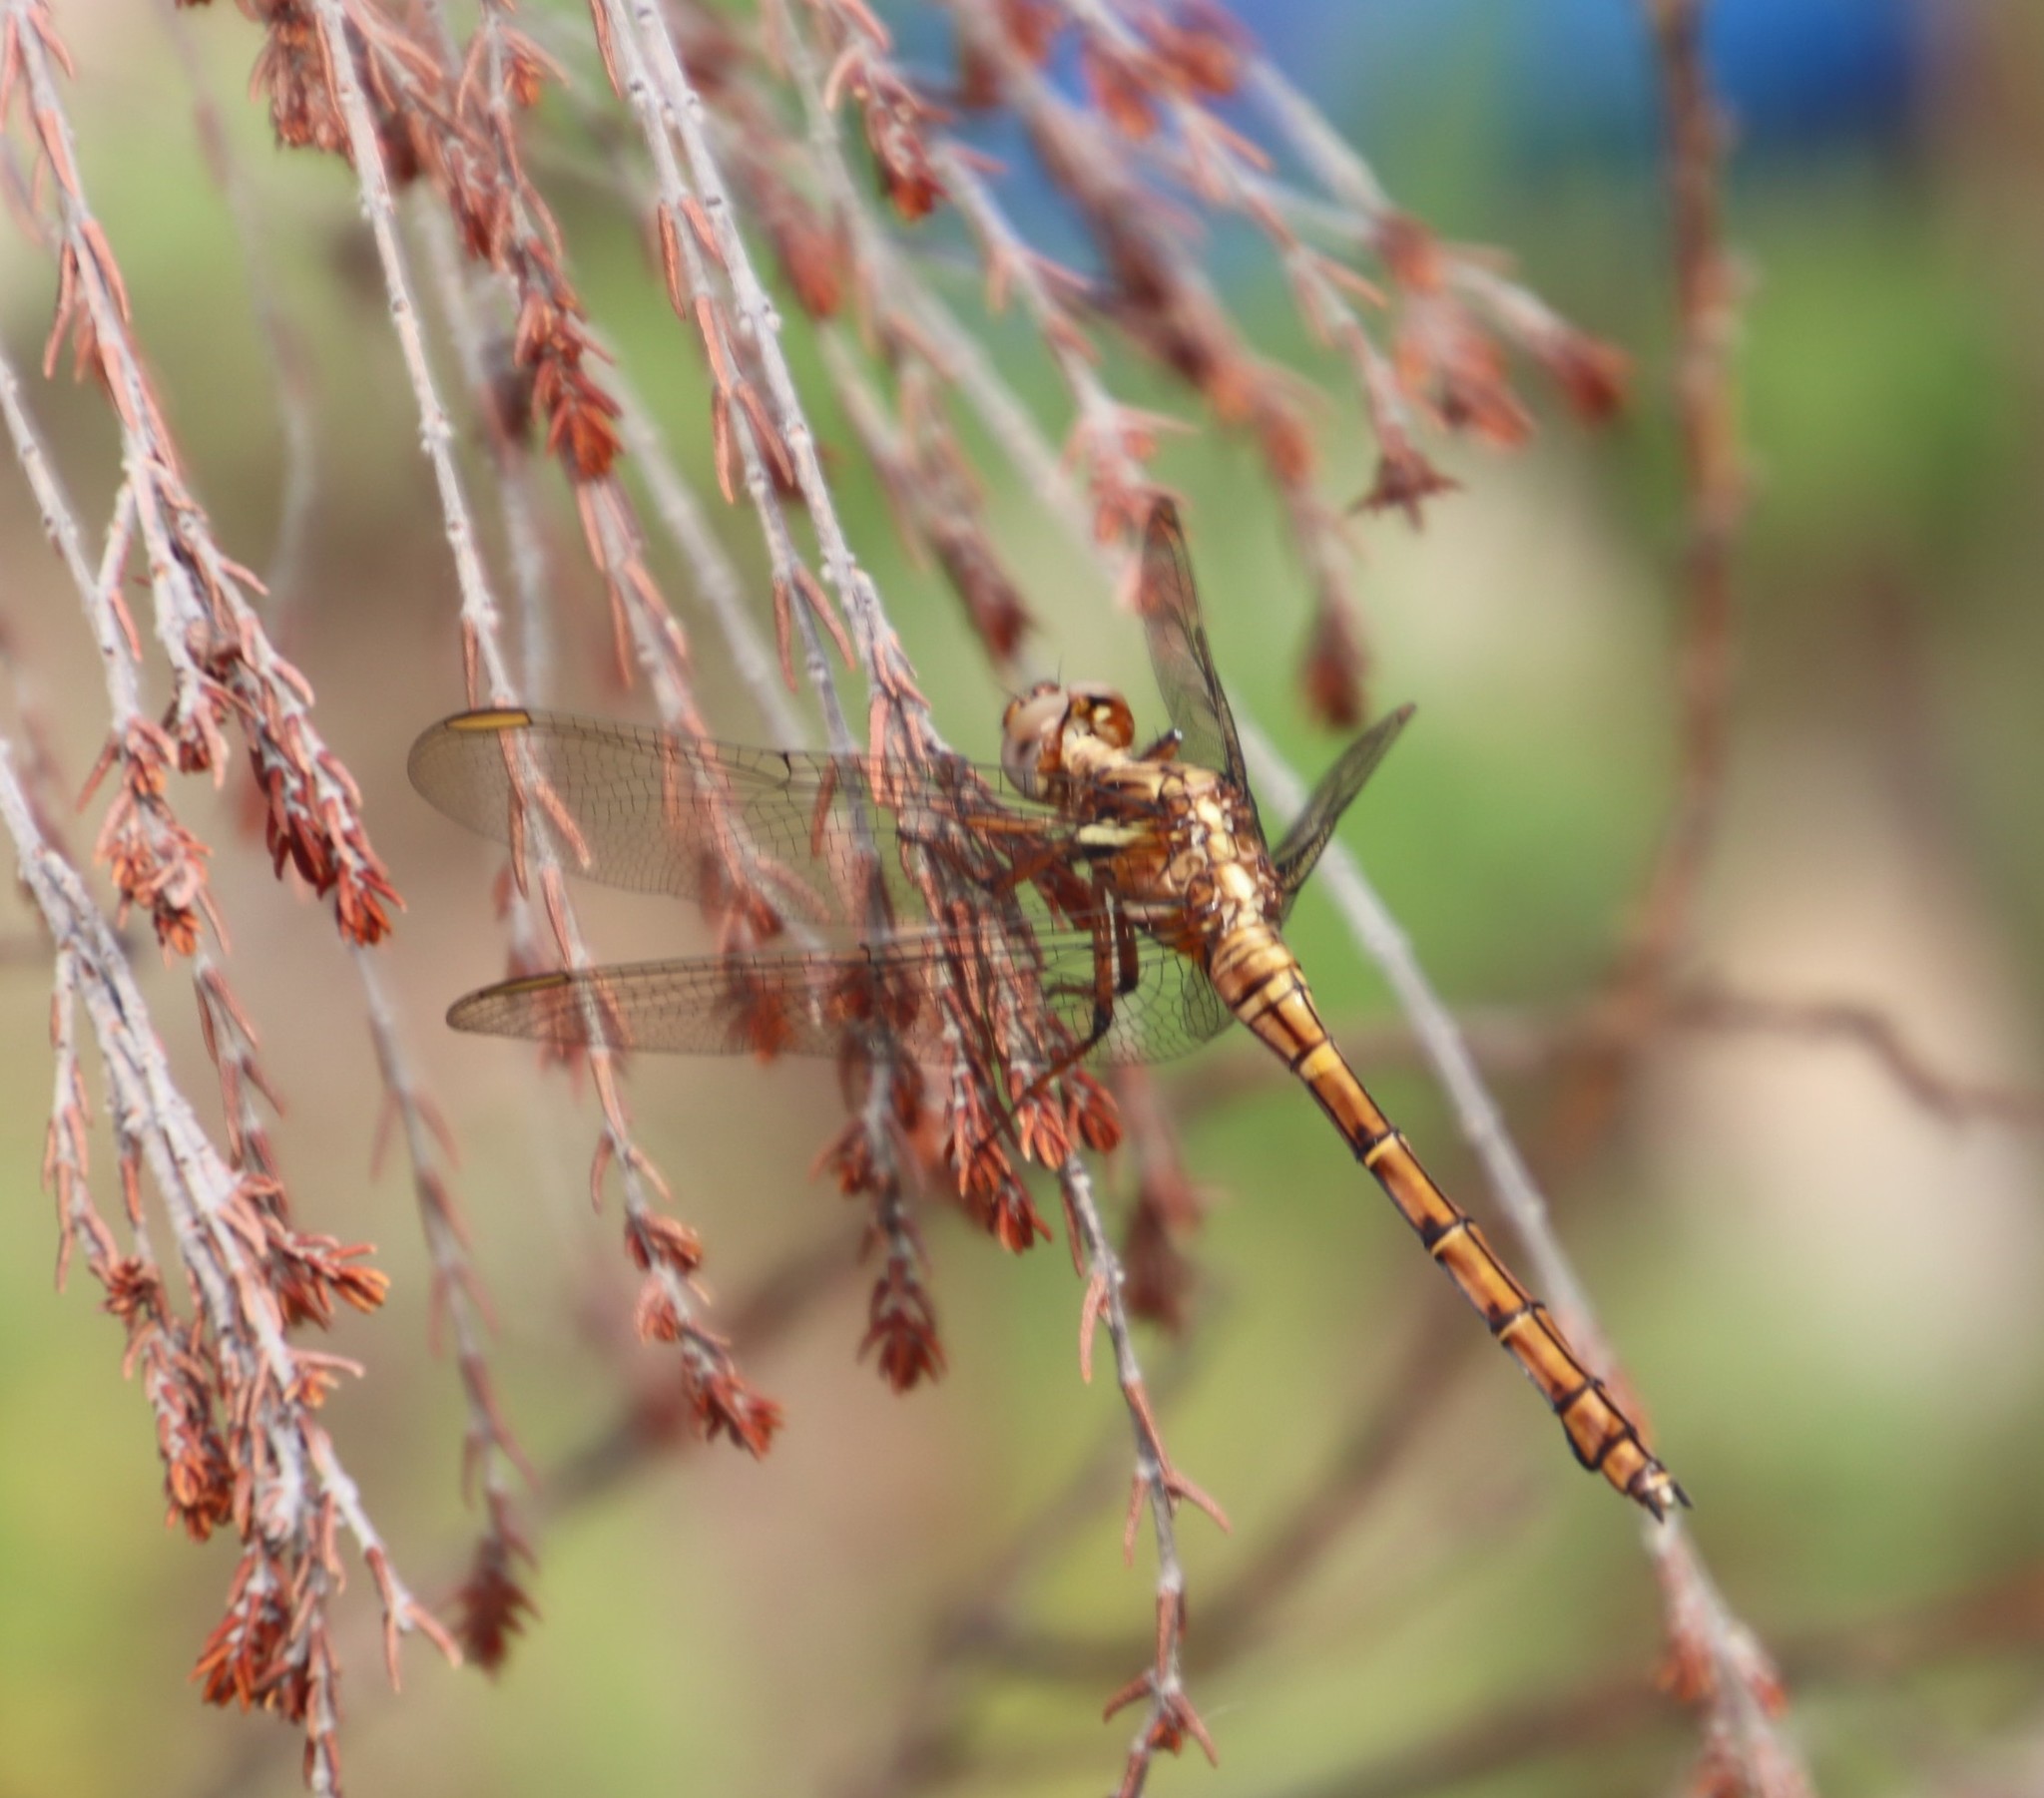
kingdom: Animalia
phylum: Arthropoda
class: Insecta
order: Odonata
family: Libellulidae
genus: Orthetrum
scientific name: Orthetrum julia
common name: Julia skimmer
